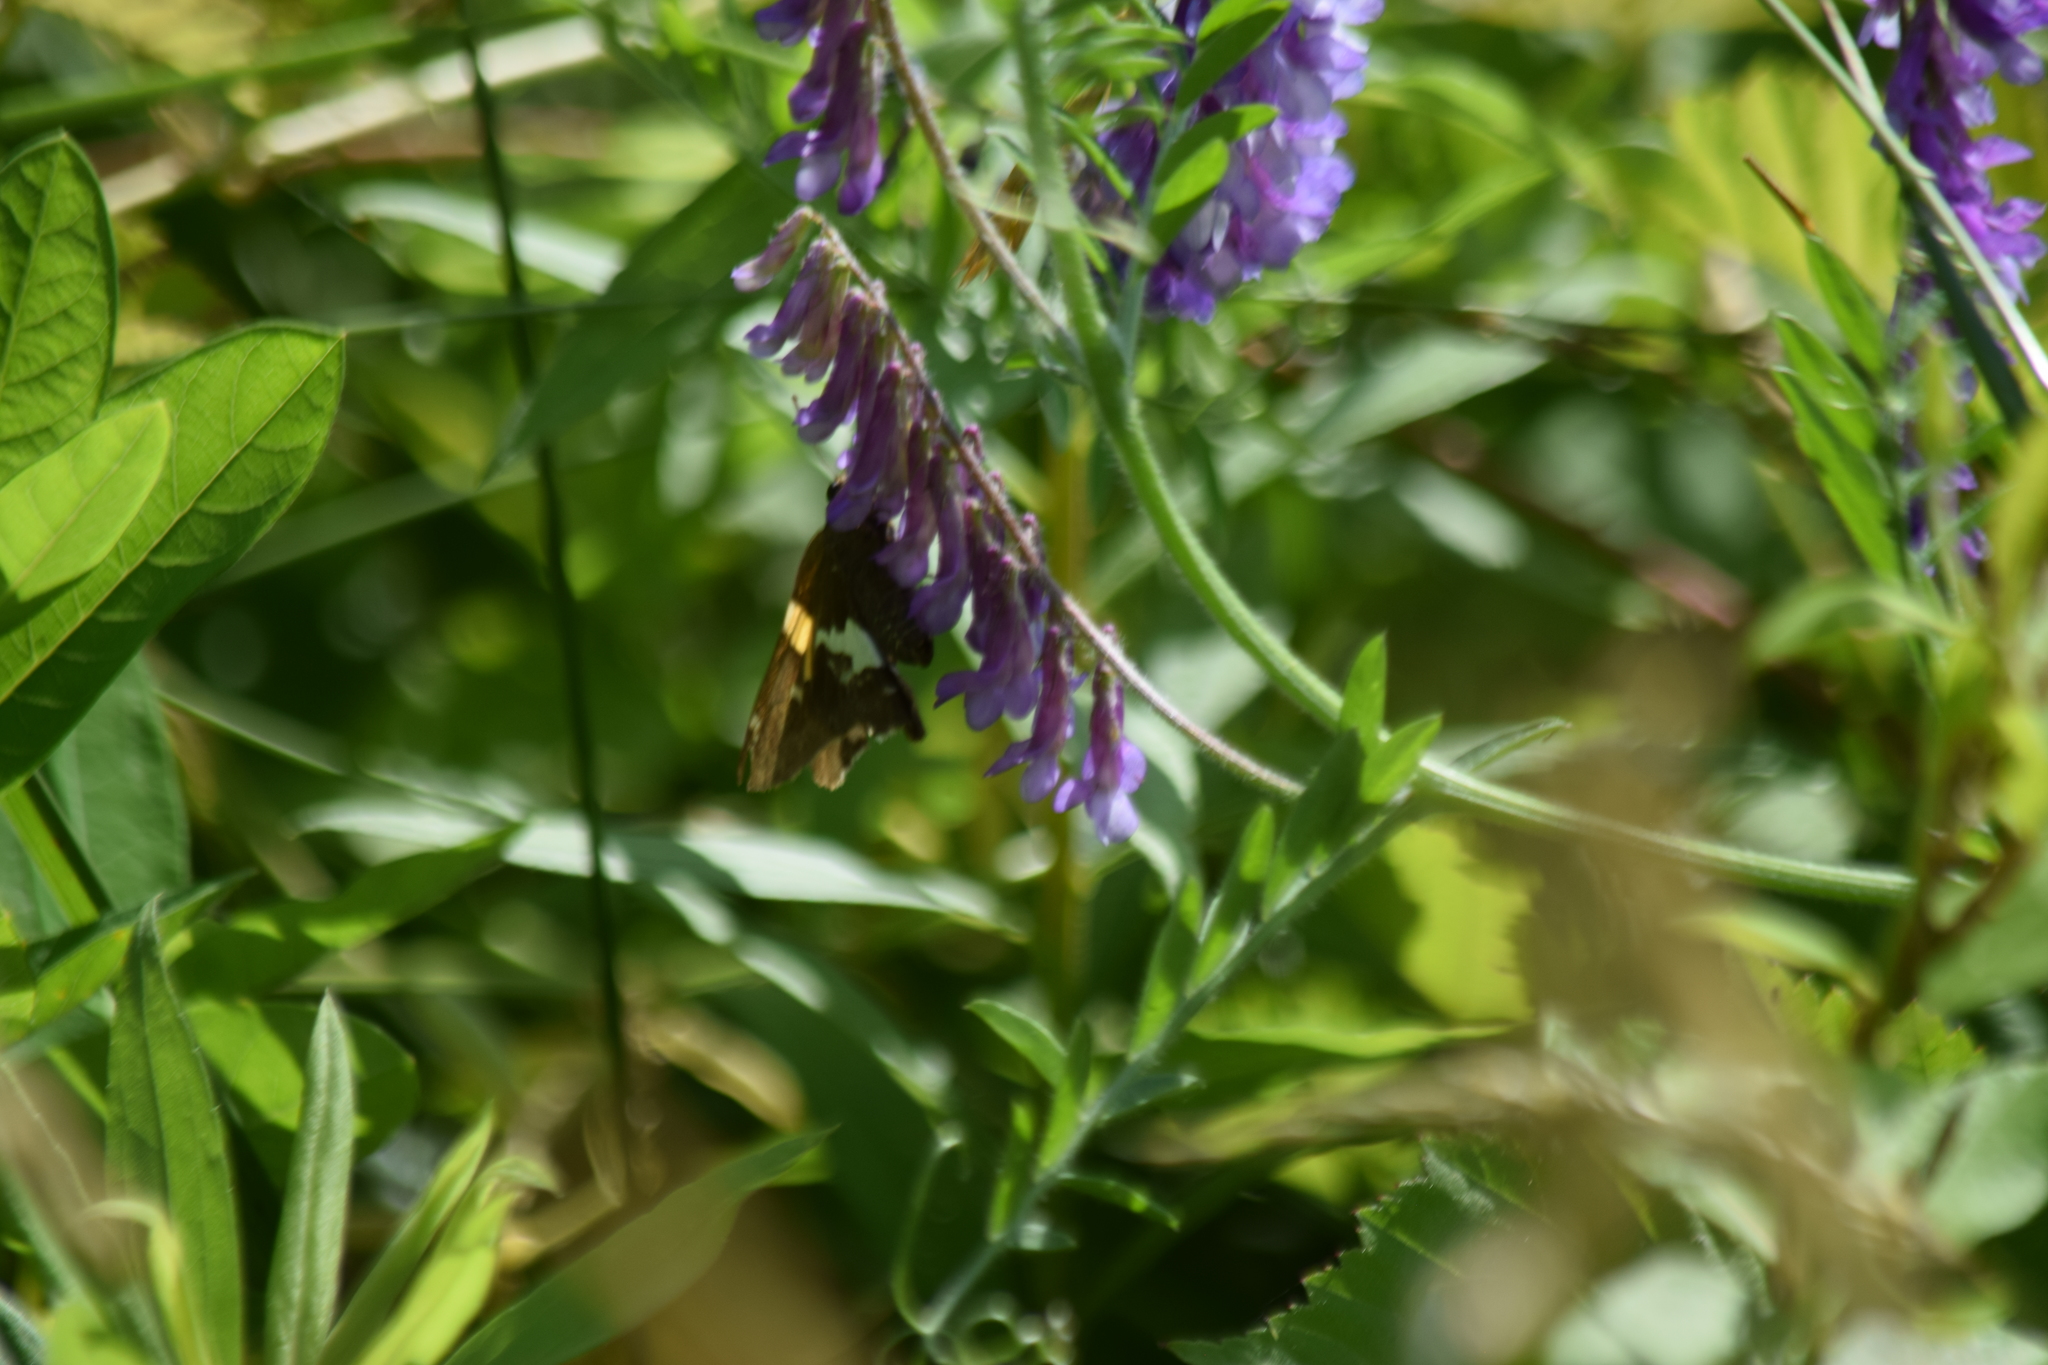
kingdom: Animalia
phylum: Arthropoda
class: Insecta
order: Lepidoptera
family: Hesperiidae
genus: Epargyreus
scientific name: Epargyreus clarus
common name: Silver-spotted skipper
